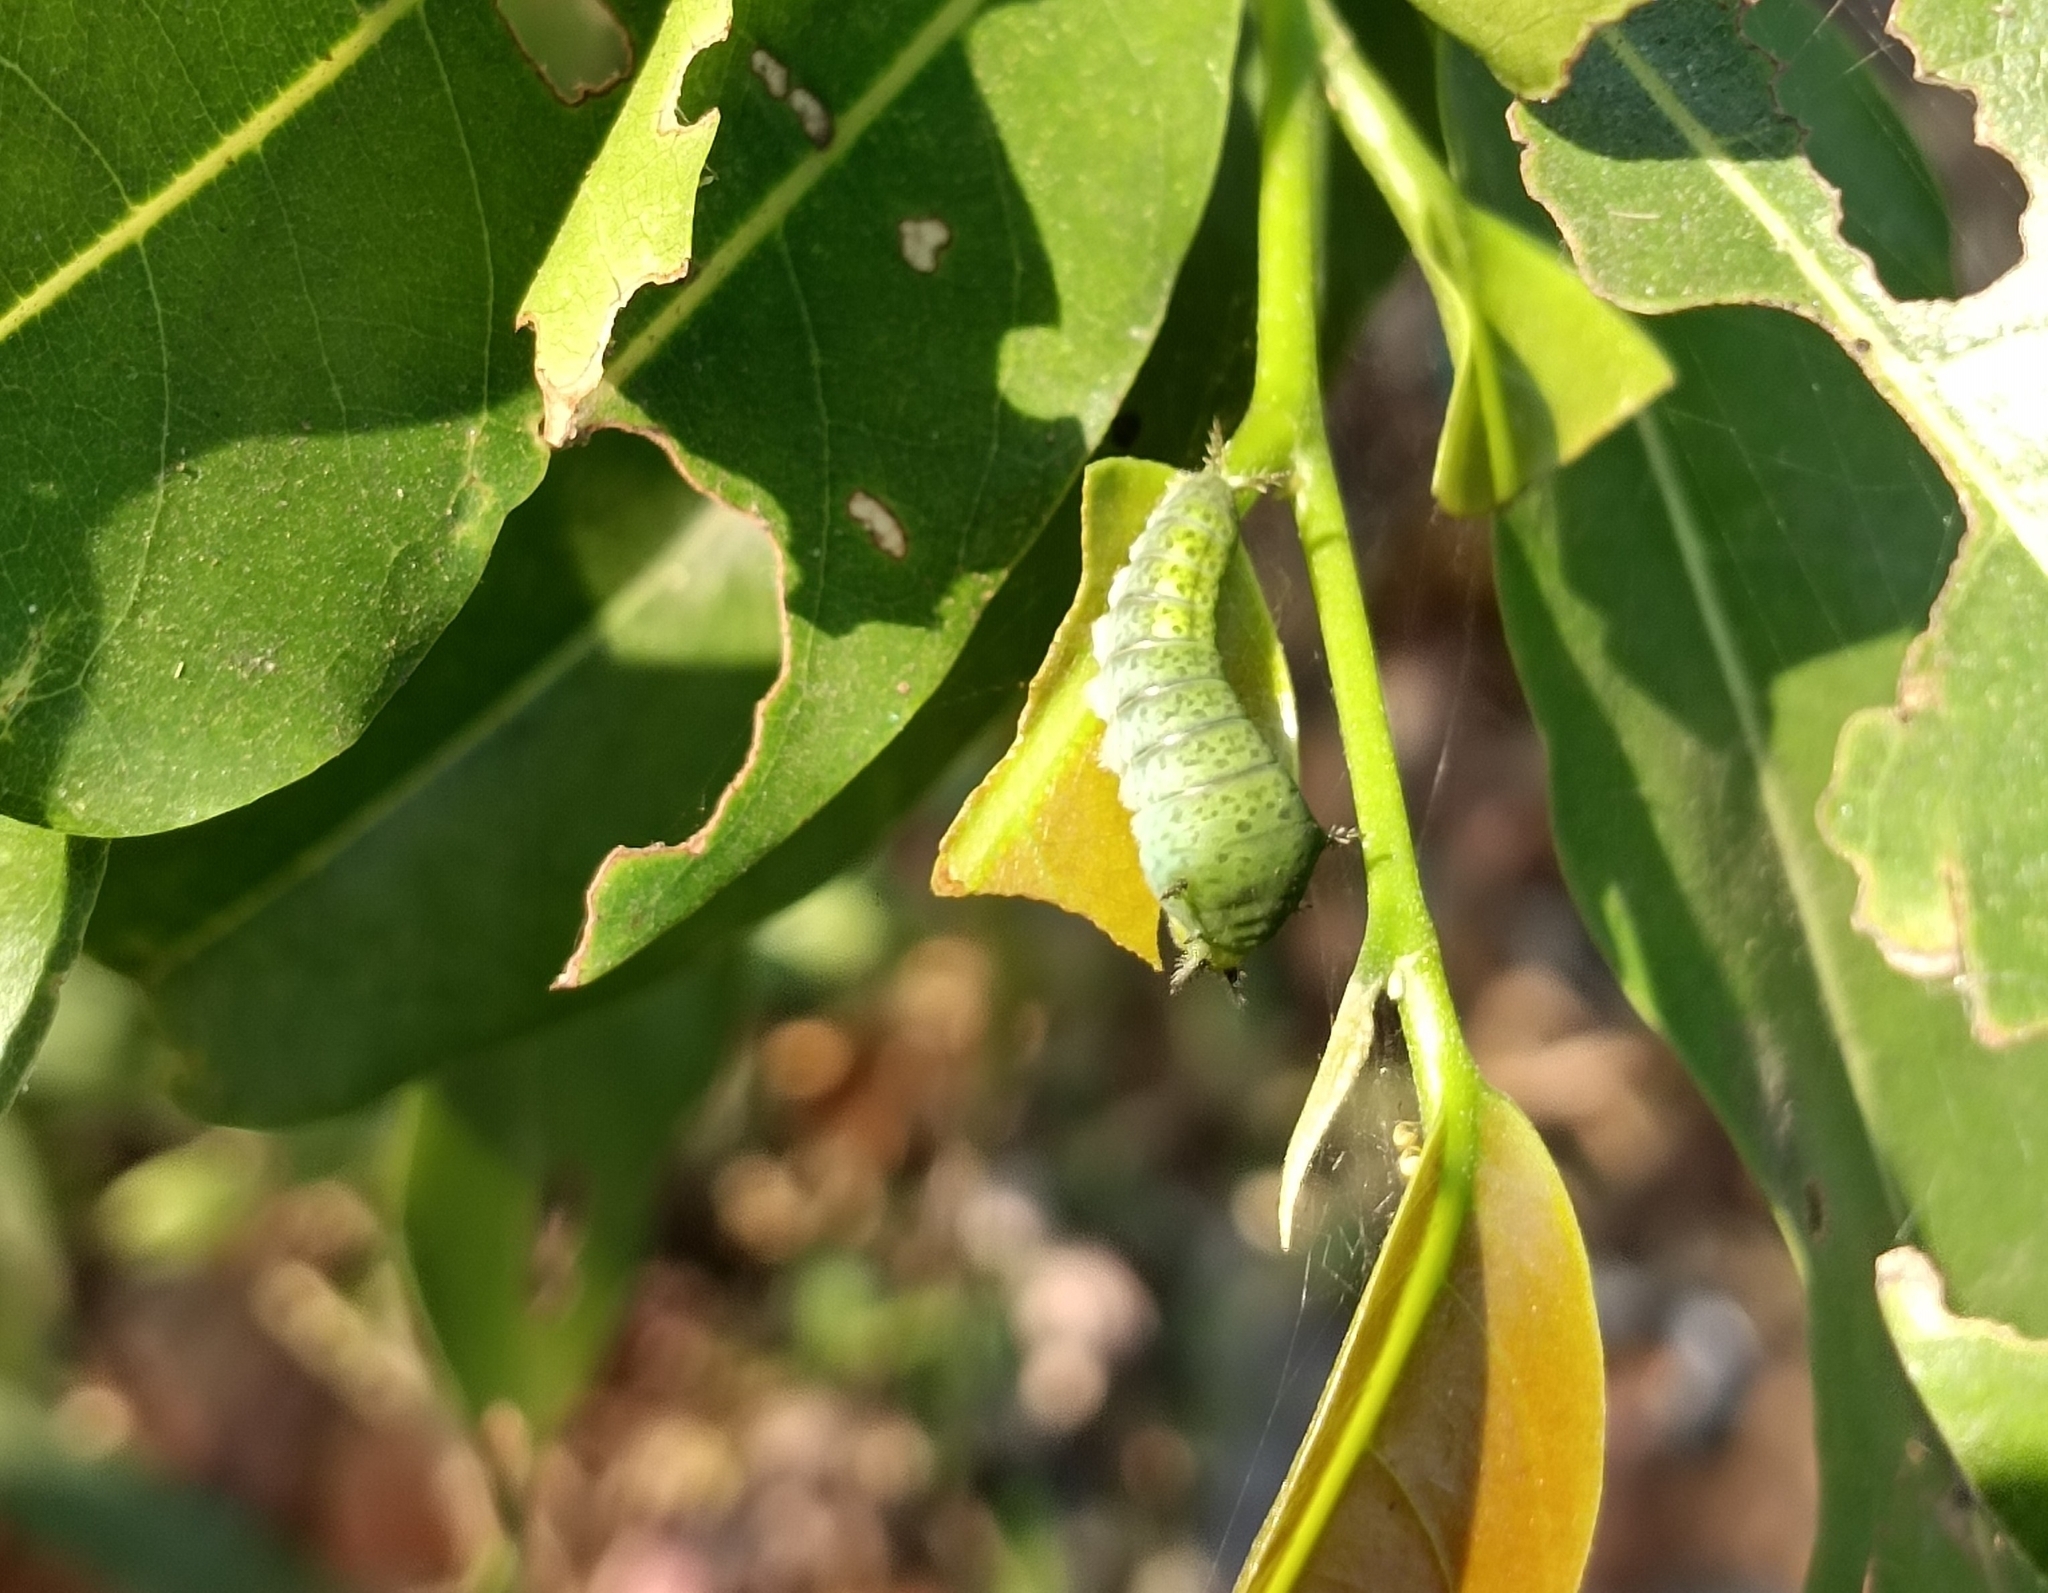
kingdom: Animalia
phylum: Arthropoda
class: Insecta
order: Lepidoptera
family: Papilionidae
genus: Graphium
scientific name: Graphium agamemnon
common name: Tailed jay
